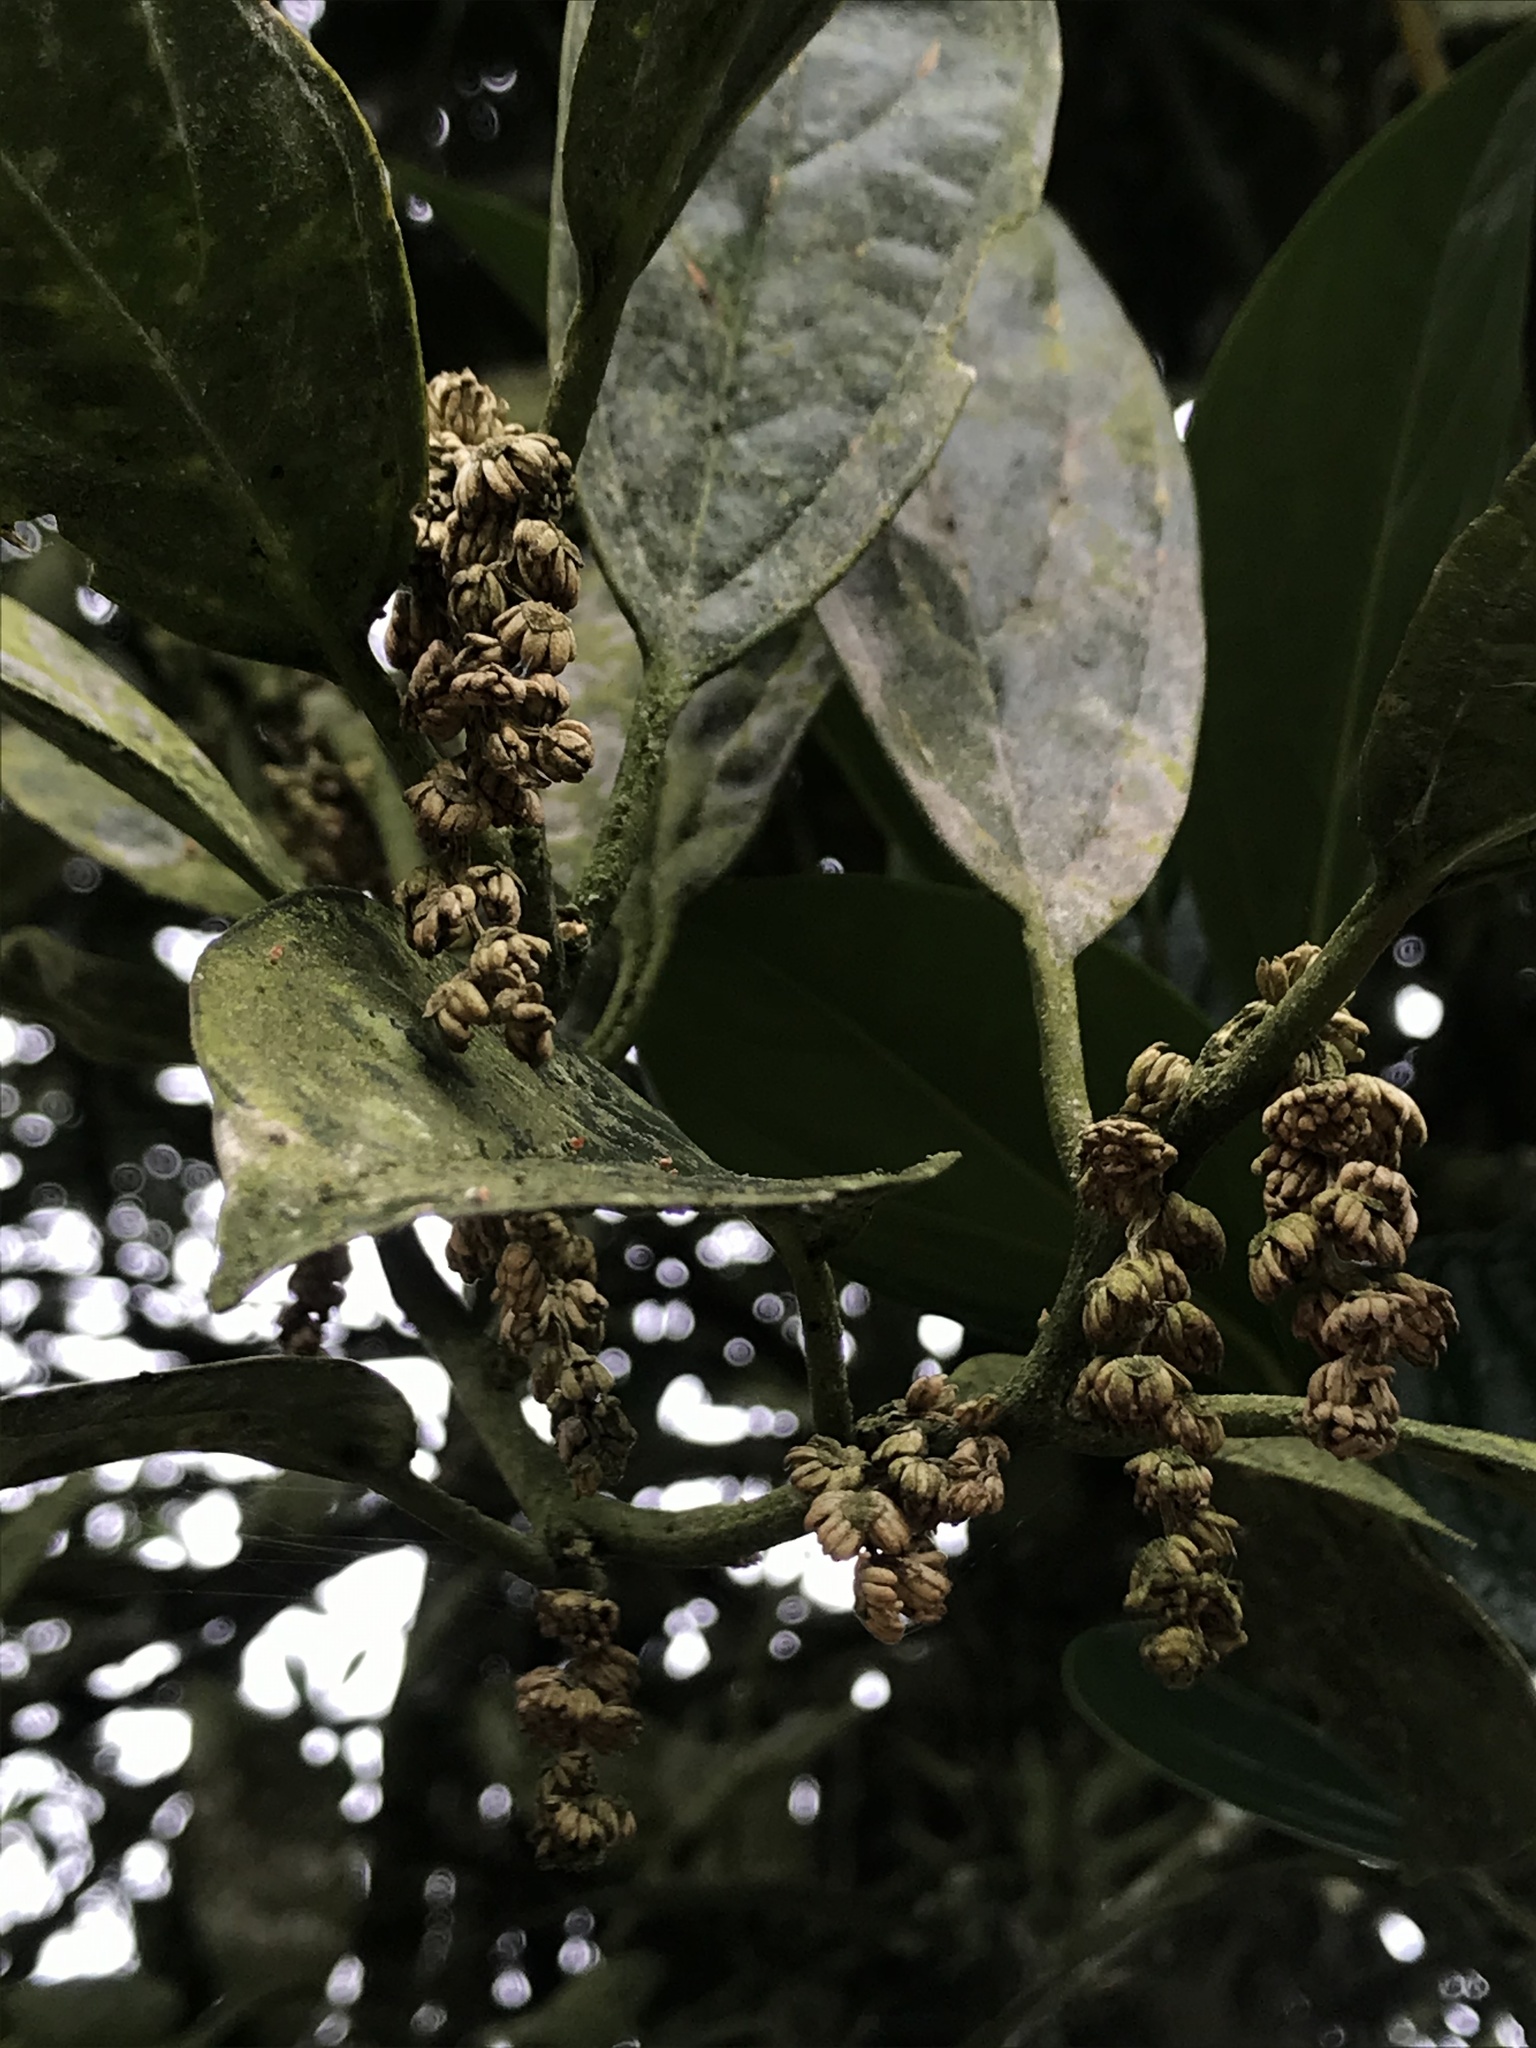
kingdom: Plantae
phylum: Tracheophyta
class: Magnoliopsida
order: Buxales
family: Buxaceae
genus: Styloceras
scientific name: Styloceras laurifolium
